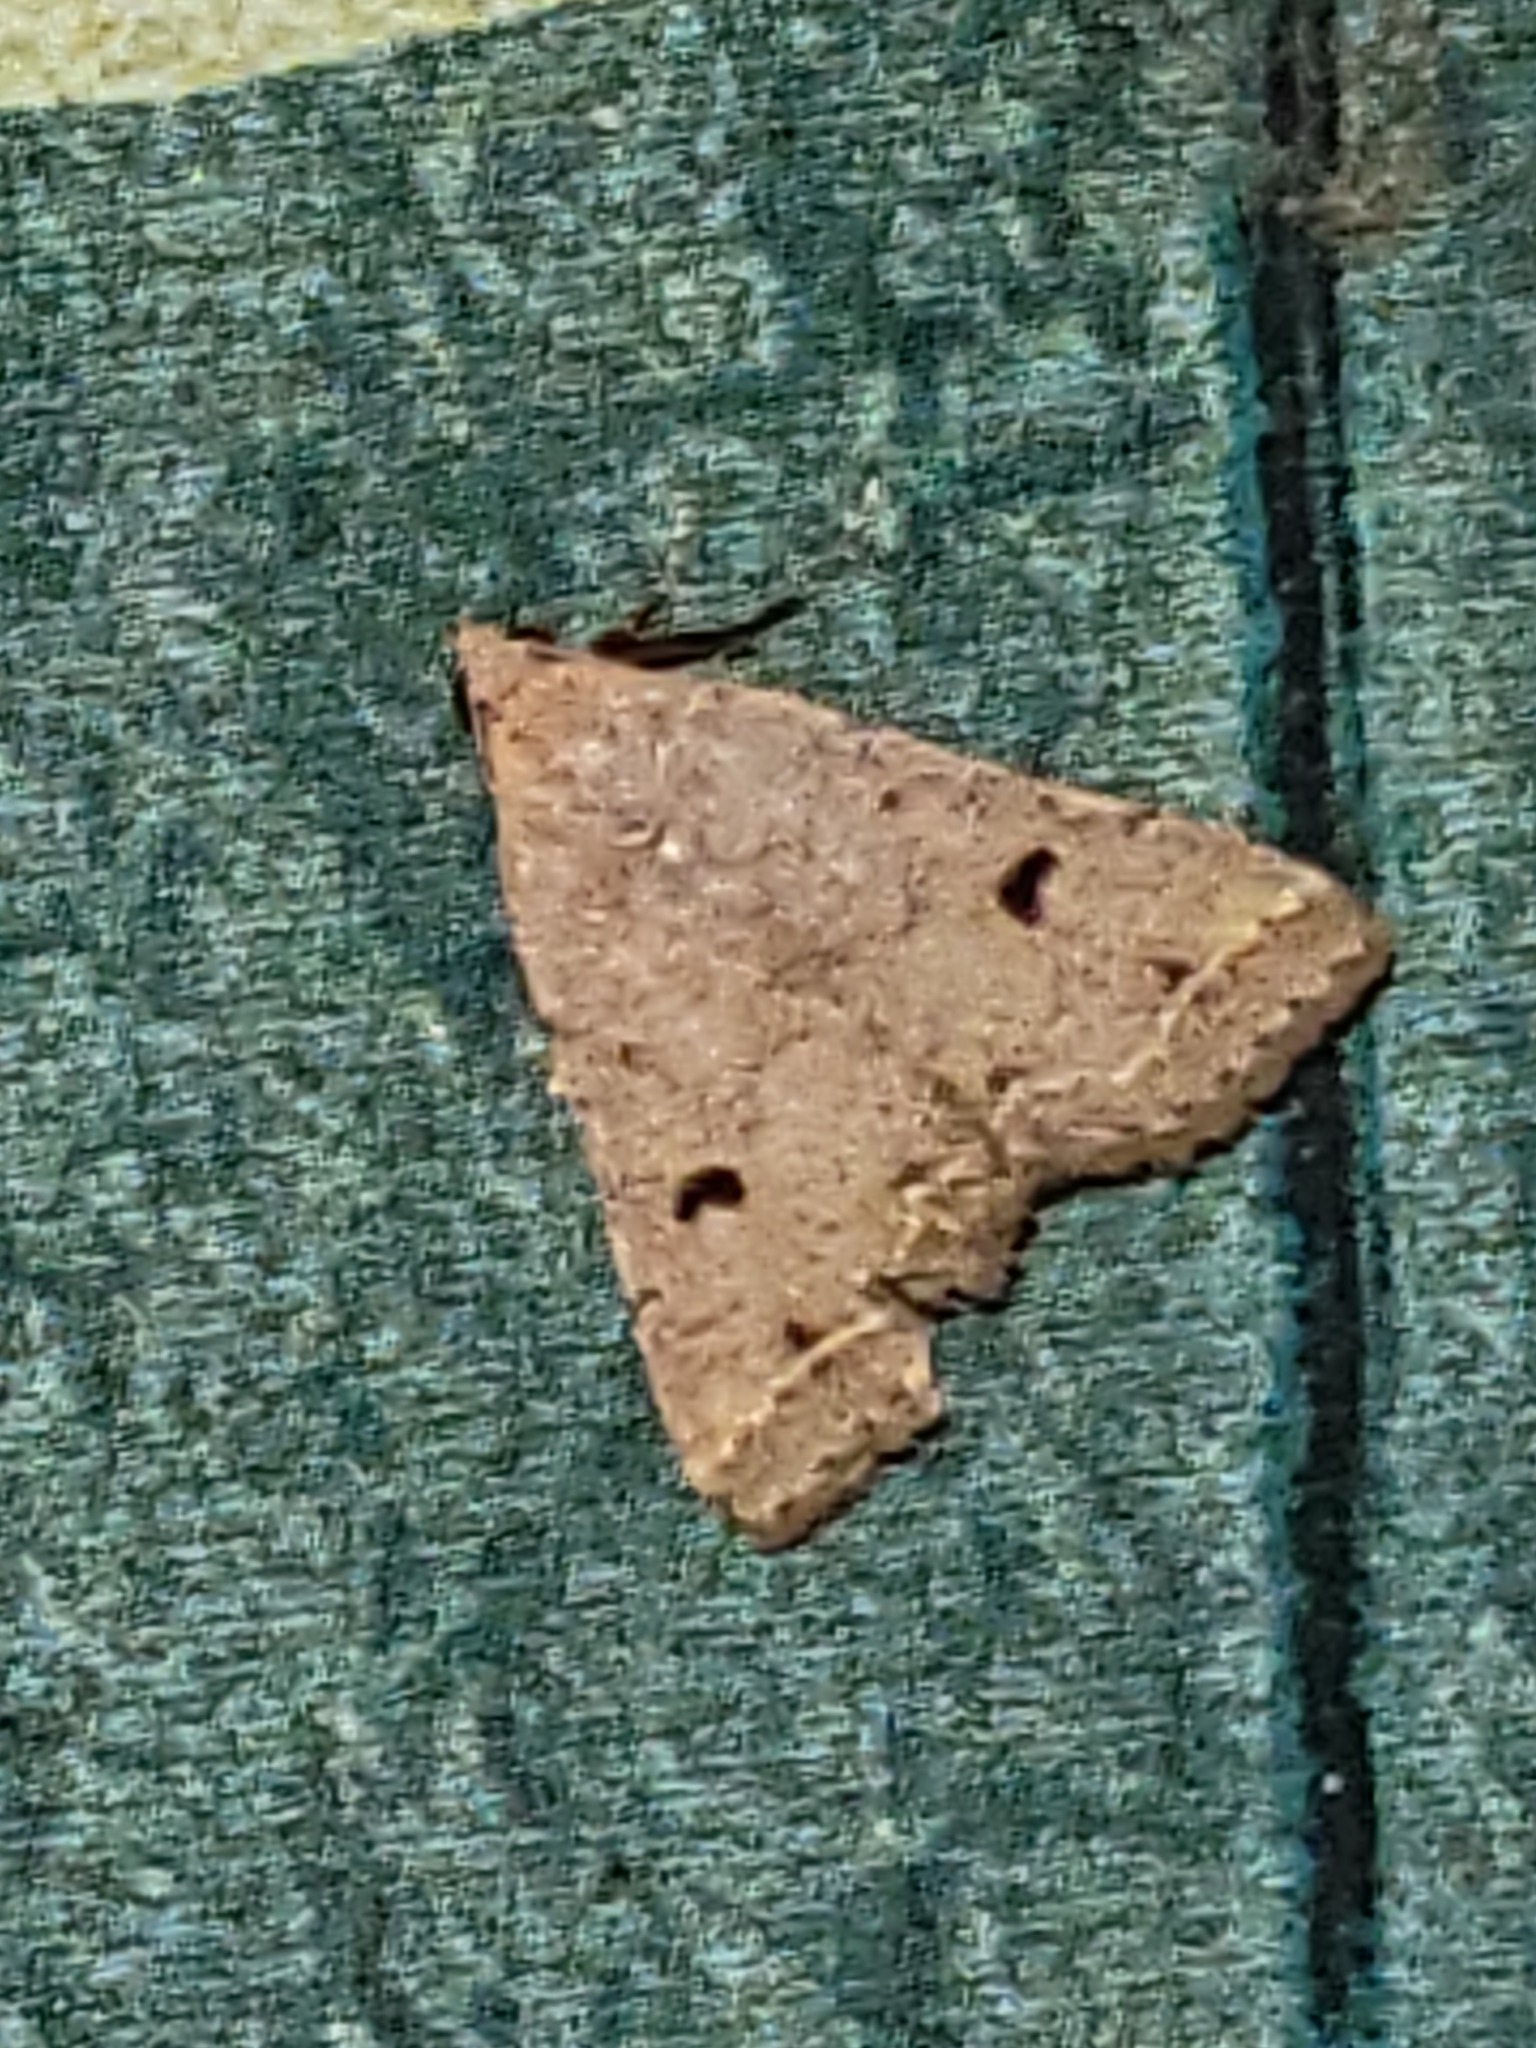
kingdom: Animalia
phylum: Arthropoda
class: Insecta
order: Lepidoptera
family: Erebidae
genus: Bleptina
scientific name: Bleptina caradrinalis
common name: Bent-winged owlet
